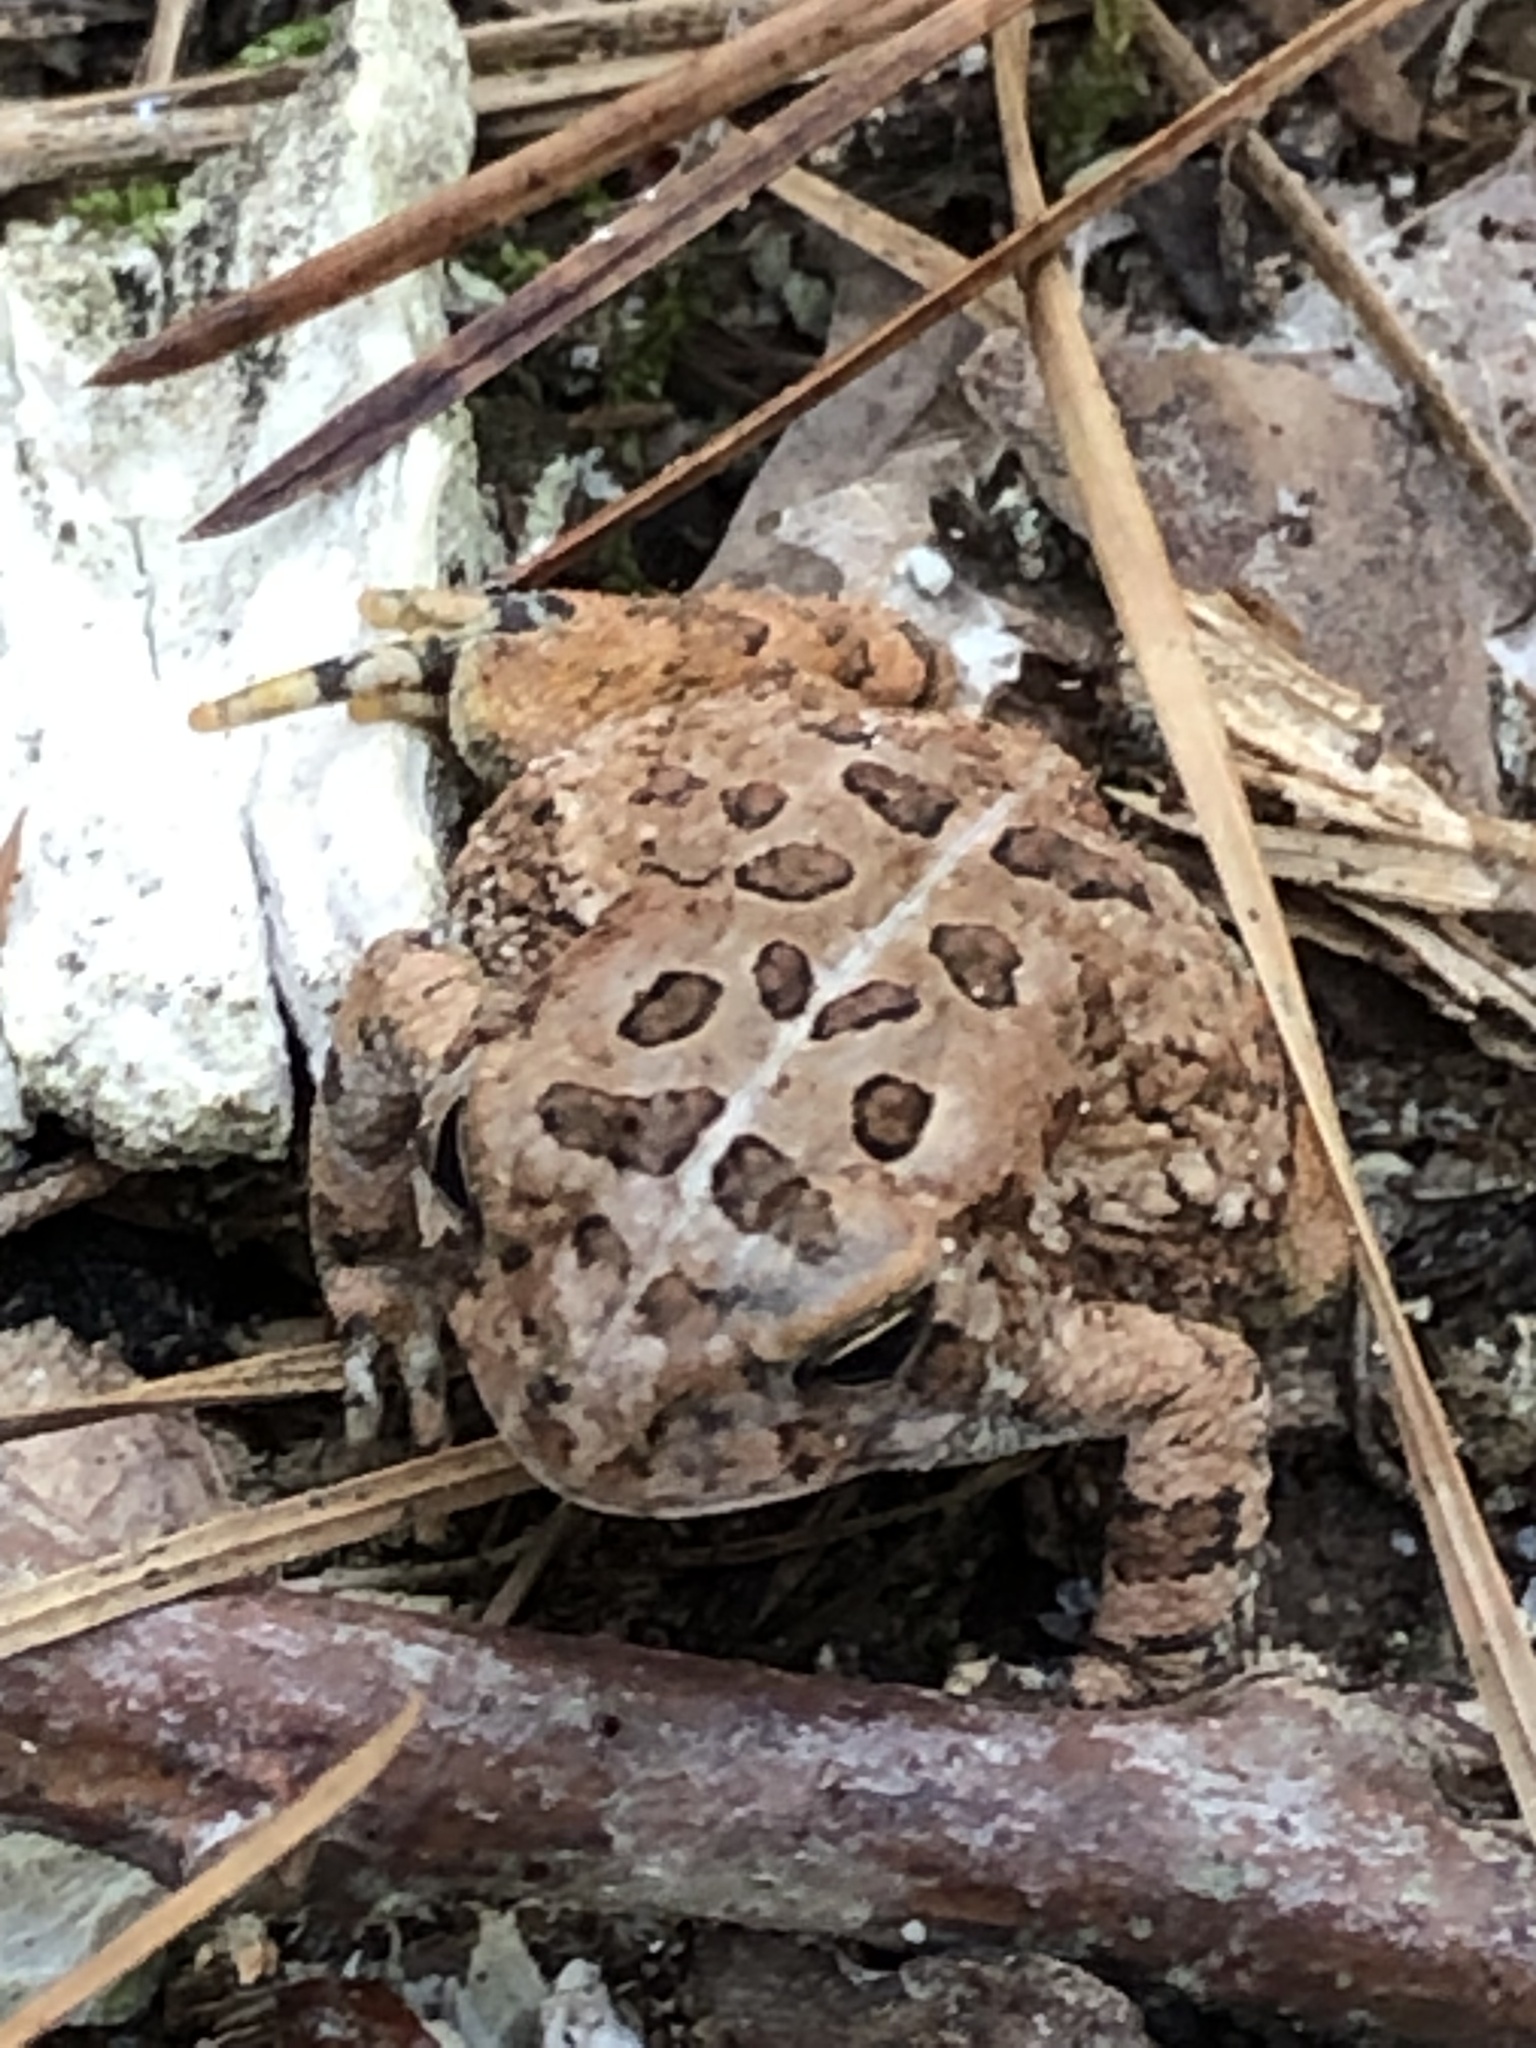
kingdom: Animalia
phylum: Chordata
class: Amphibia
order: Anura
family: Bufonidae
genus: Anaxyrus
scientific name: Anaxyrus fowleri
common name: Fowler's toad
